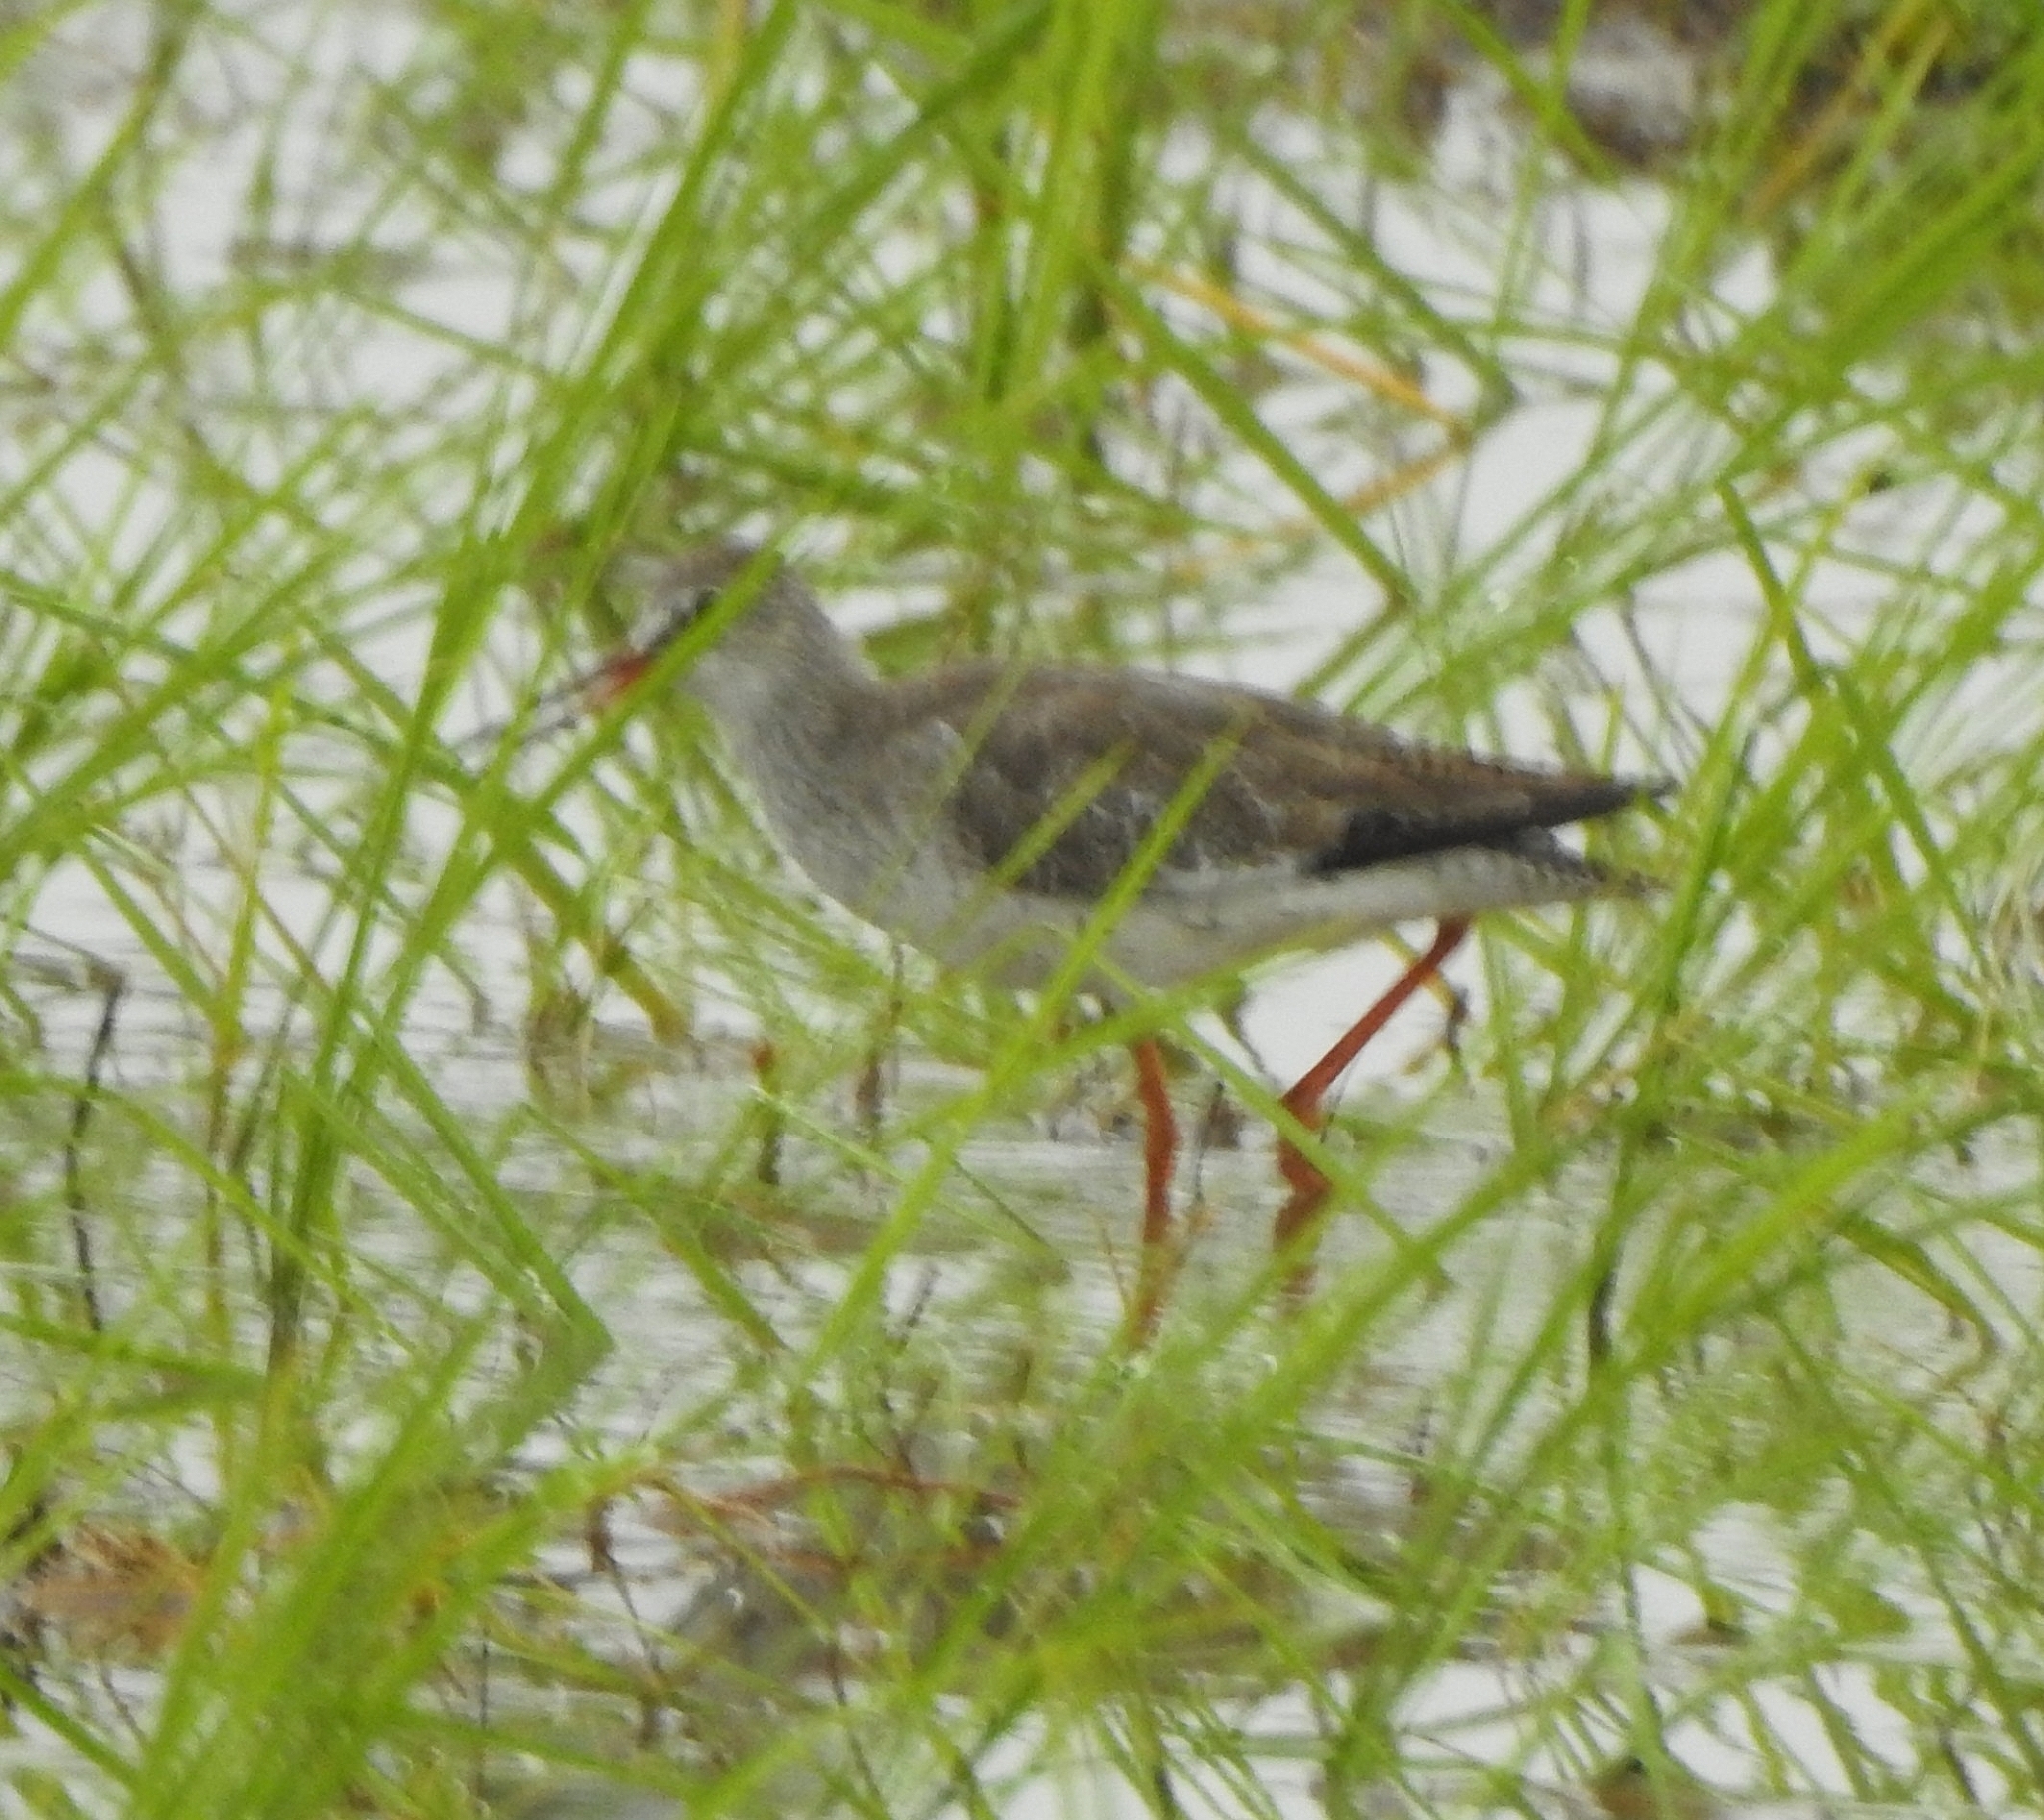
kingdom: Animalia
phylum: Chordata
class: Aves
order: Charadriiformes
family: Scolopacidae
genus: Tringa
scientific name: Tringa totanus
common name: Common redshank
